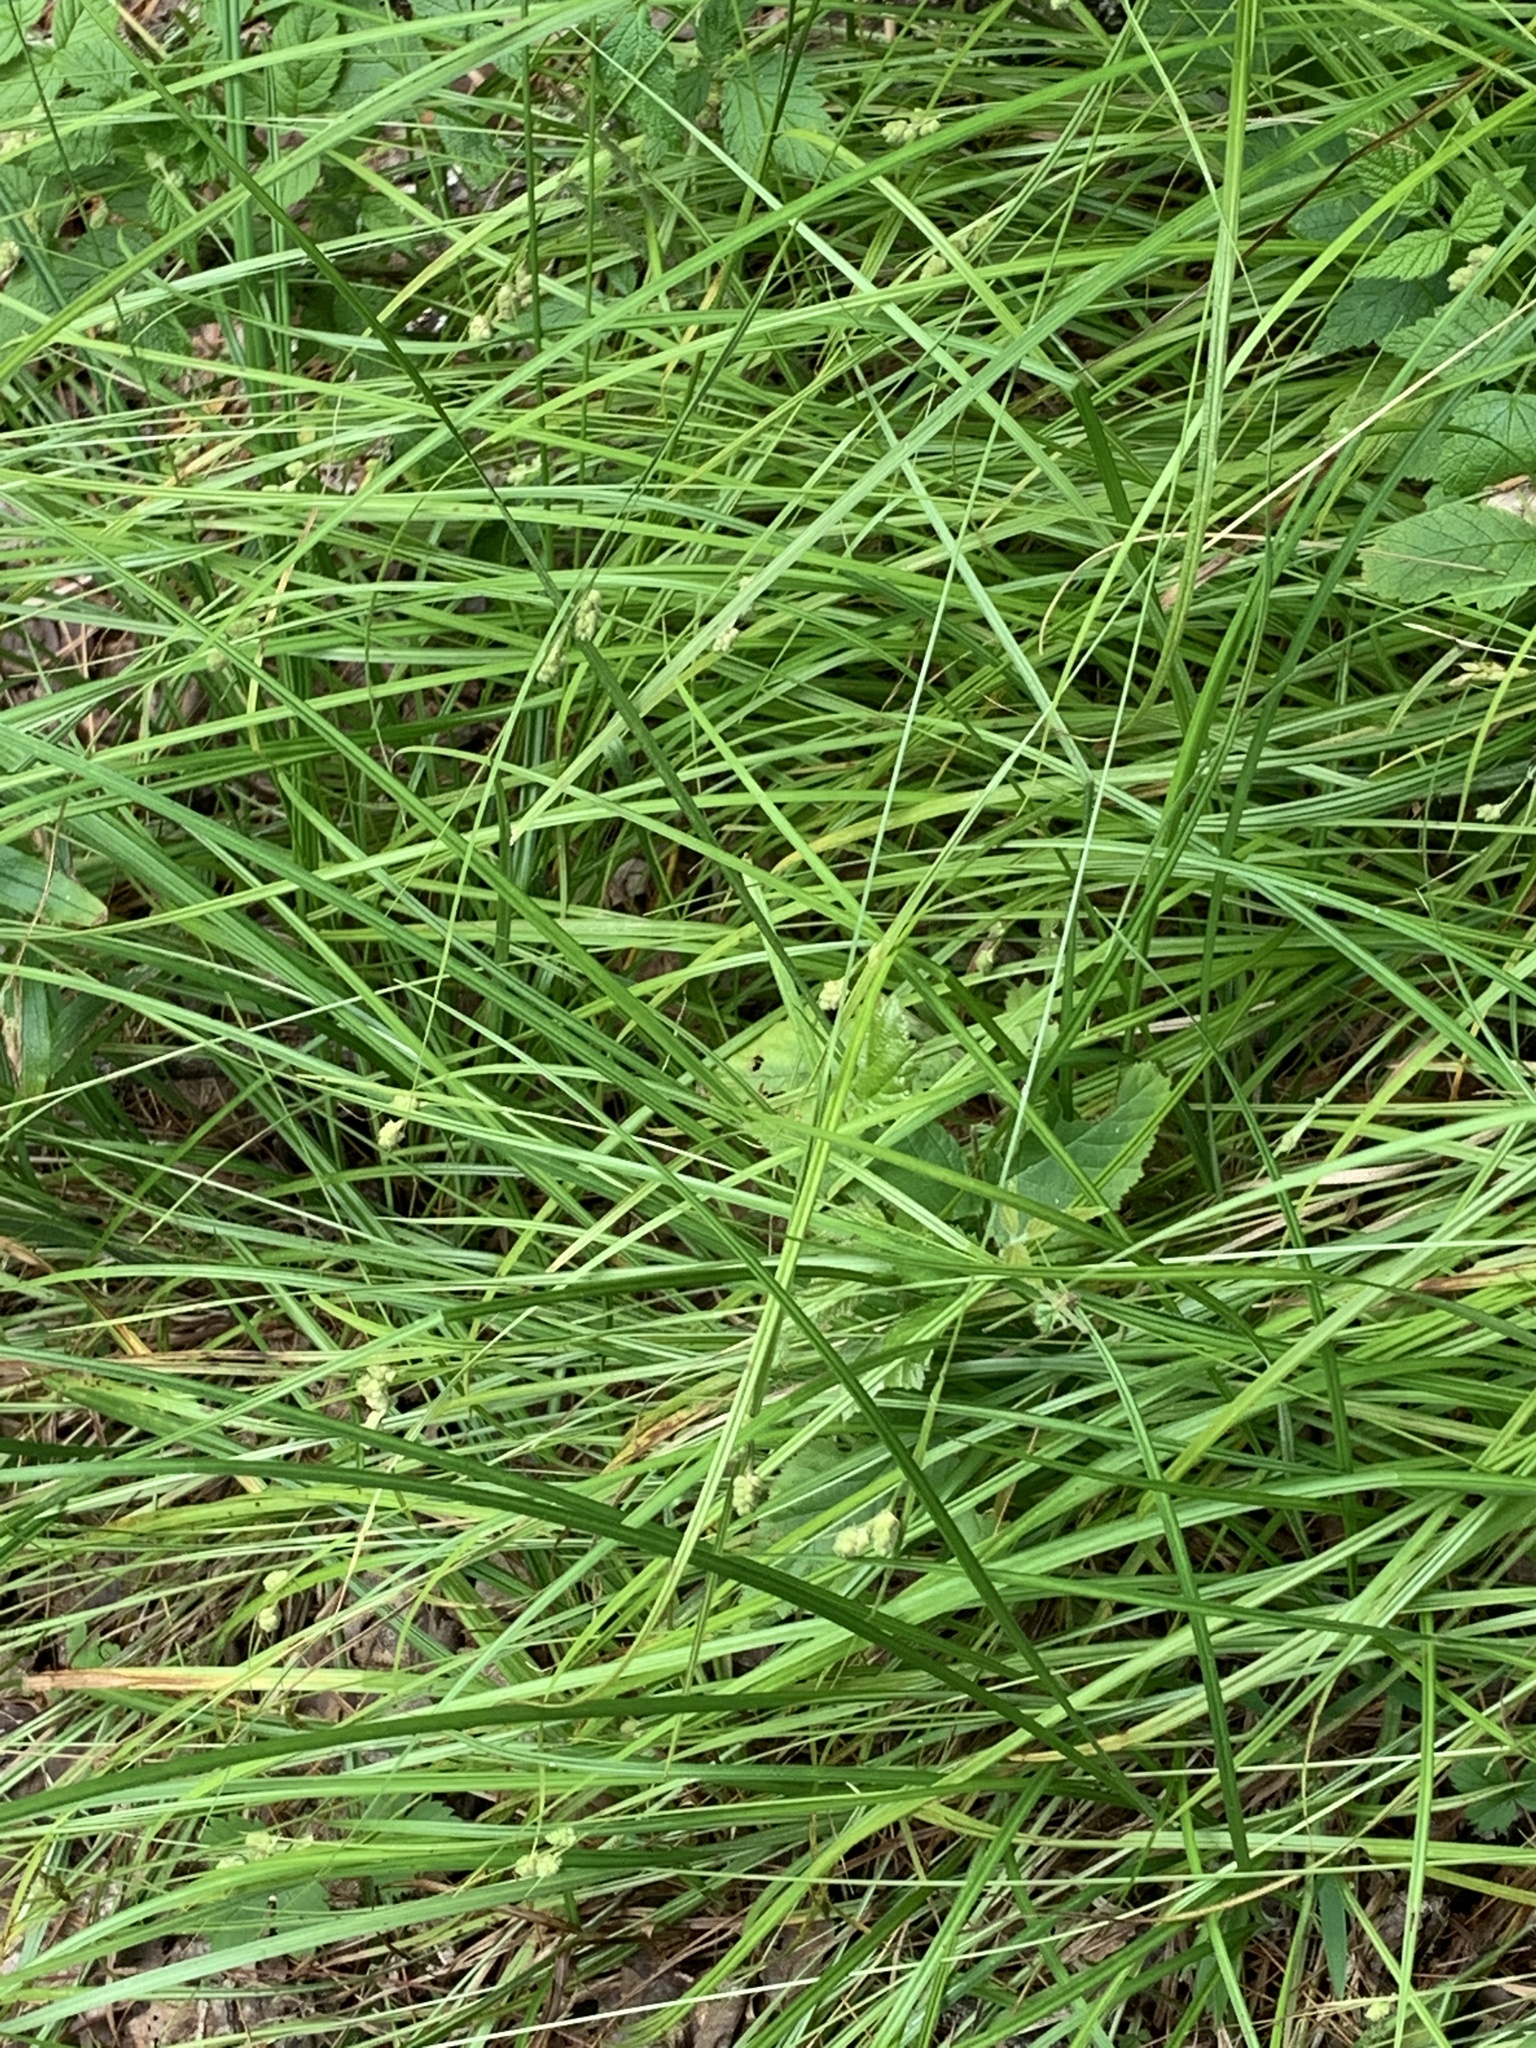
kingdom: Plantae
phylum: Tracheophyta
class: Liliopsida
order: Poales
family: Cyperaceae
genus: Carex
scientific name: Carex swanii
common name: Downy green sedge
